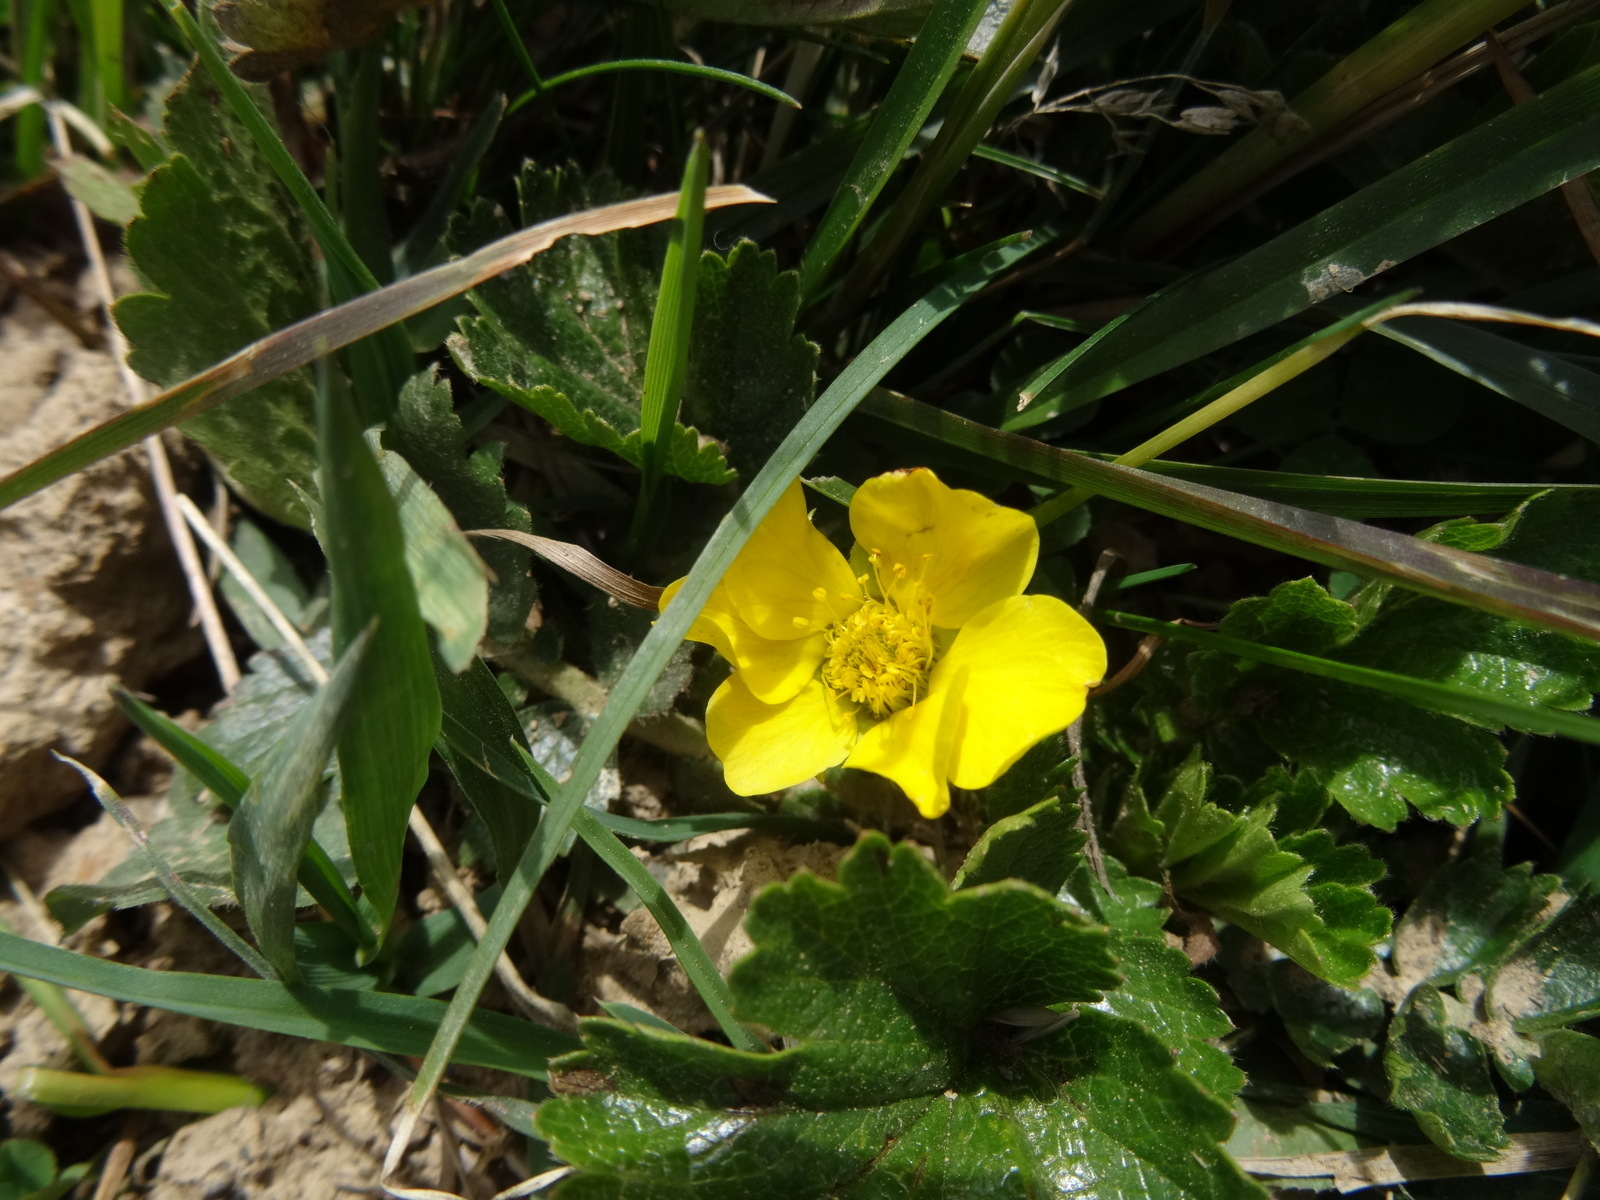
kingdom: Plantae
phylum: Tracheophyta
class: Magnoliopsida
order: Rosales
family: Rosaceae
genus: Geum
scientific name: Geum montanum
